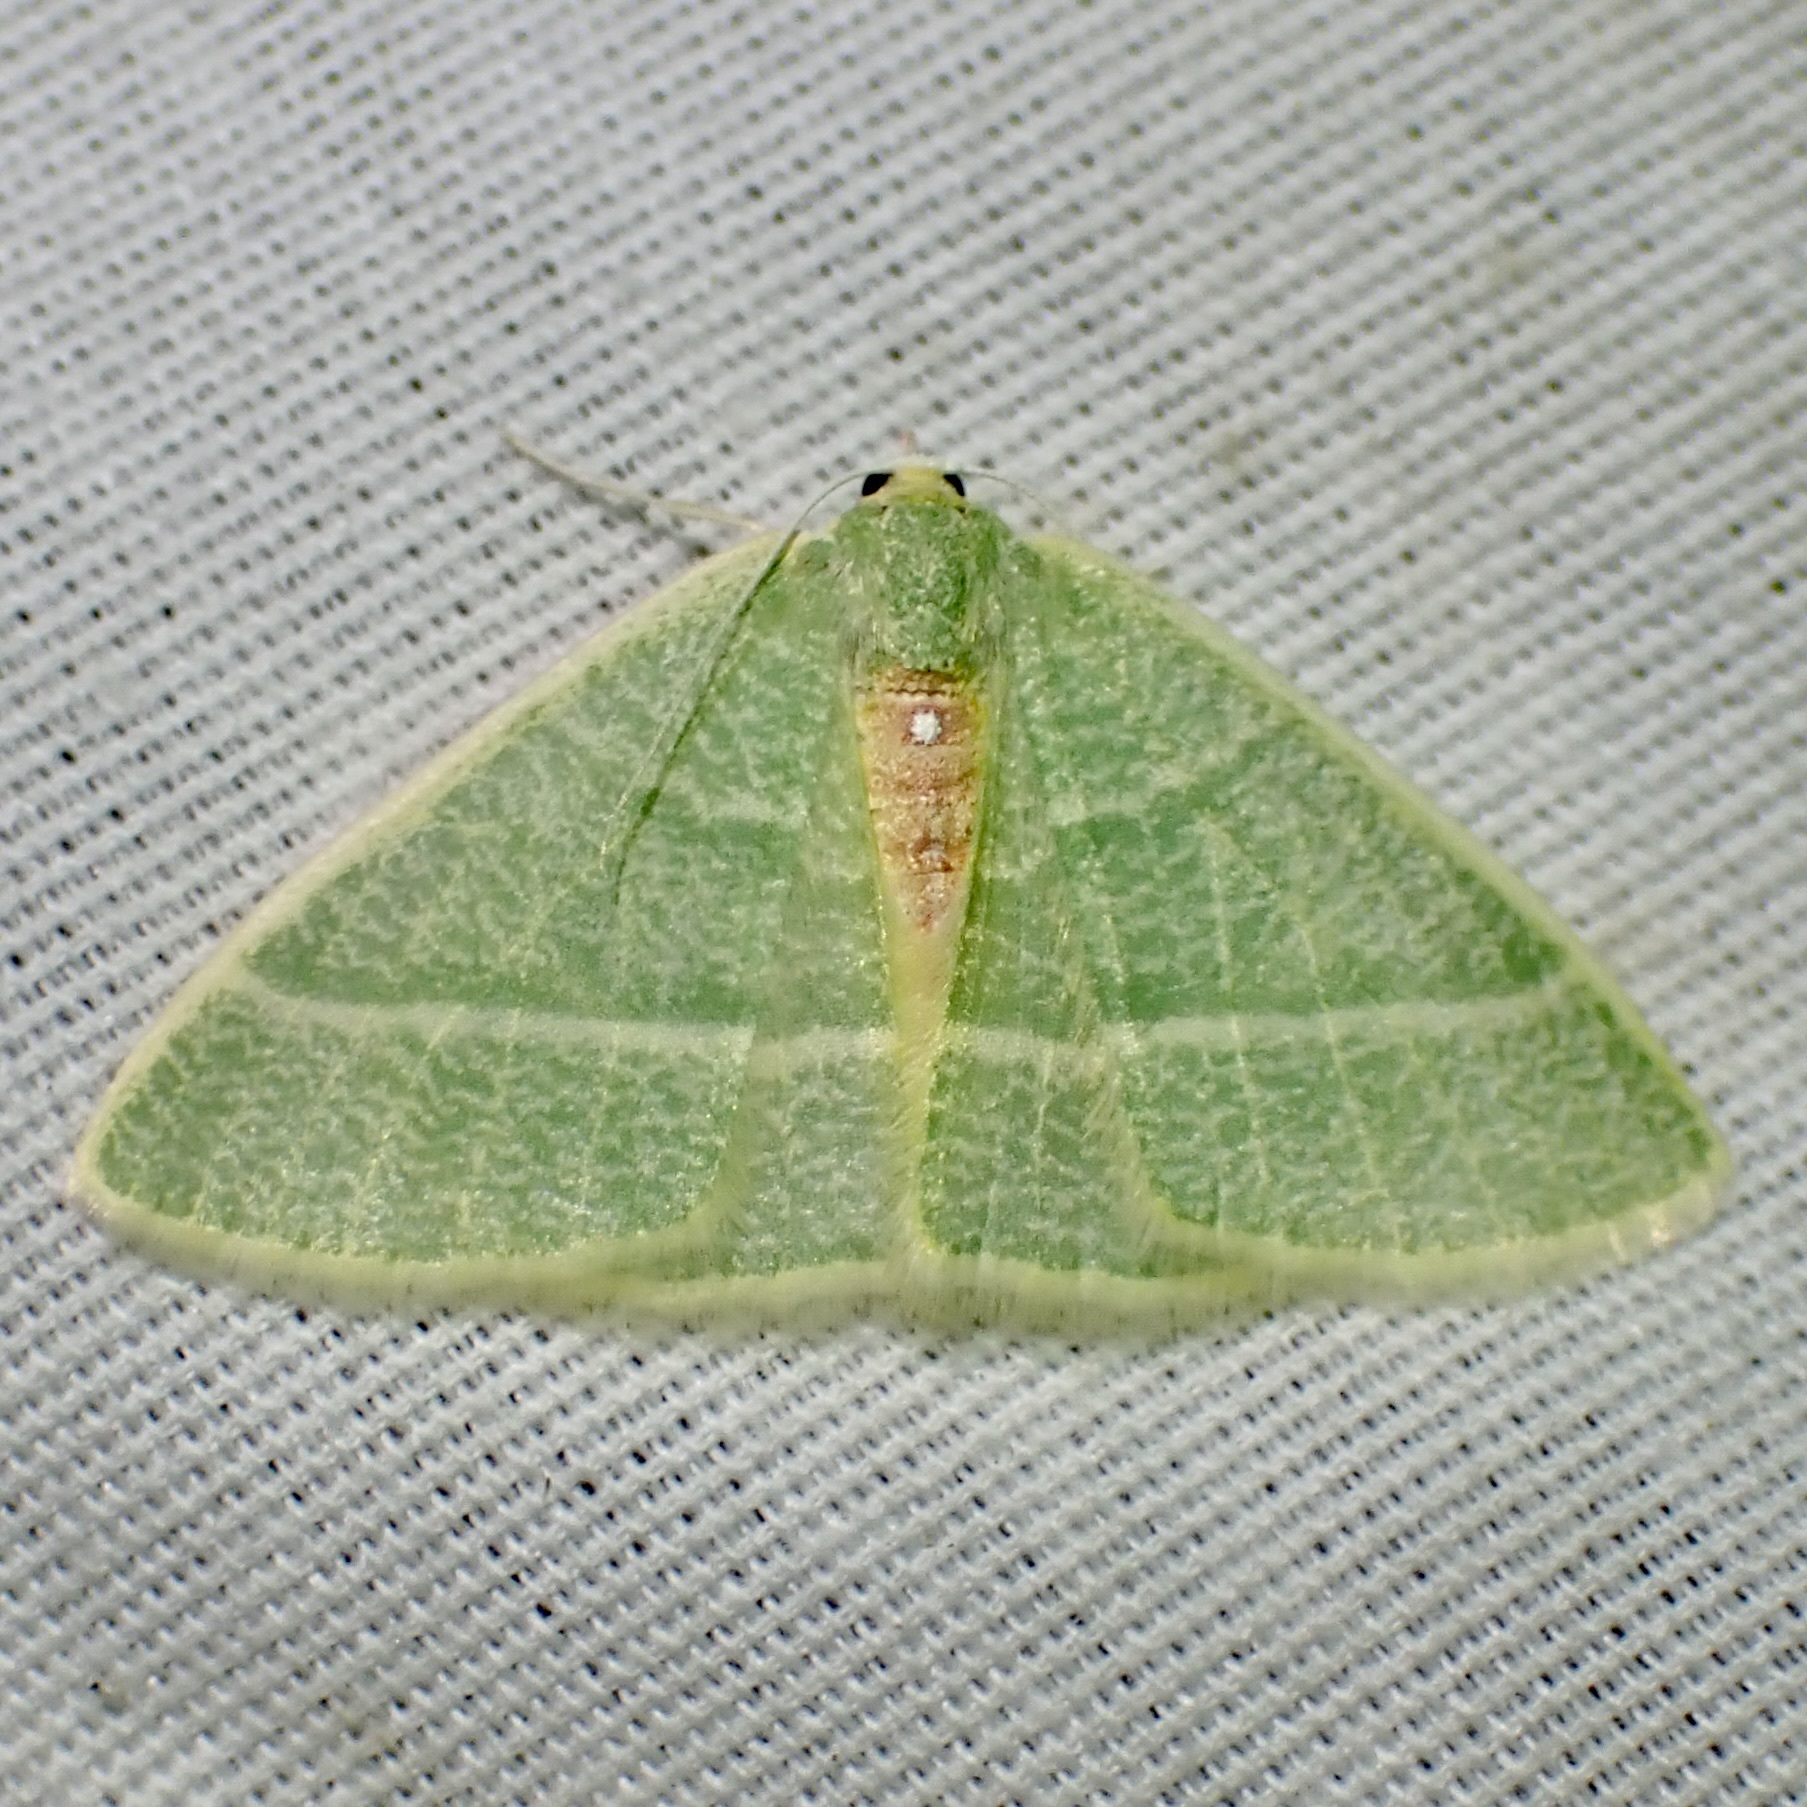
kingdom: Animalia
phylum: Arthropoda
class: Insecta
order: Lepidoptera
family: Geometridae
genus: Nemoria
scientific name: Nemoria arizonaria
